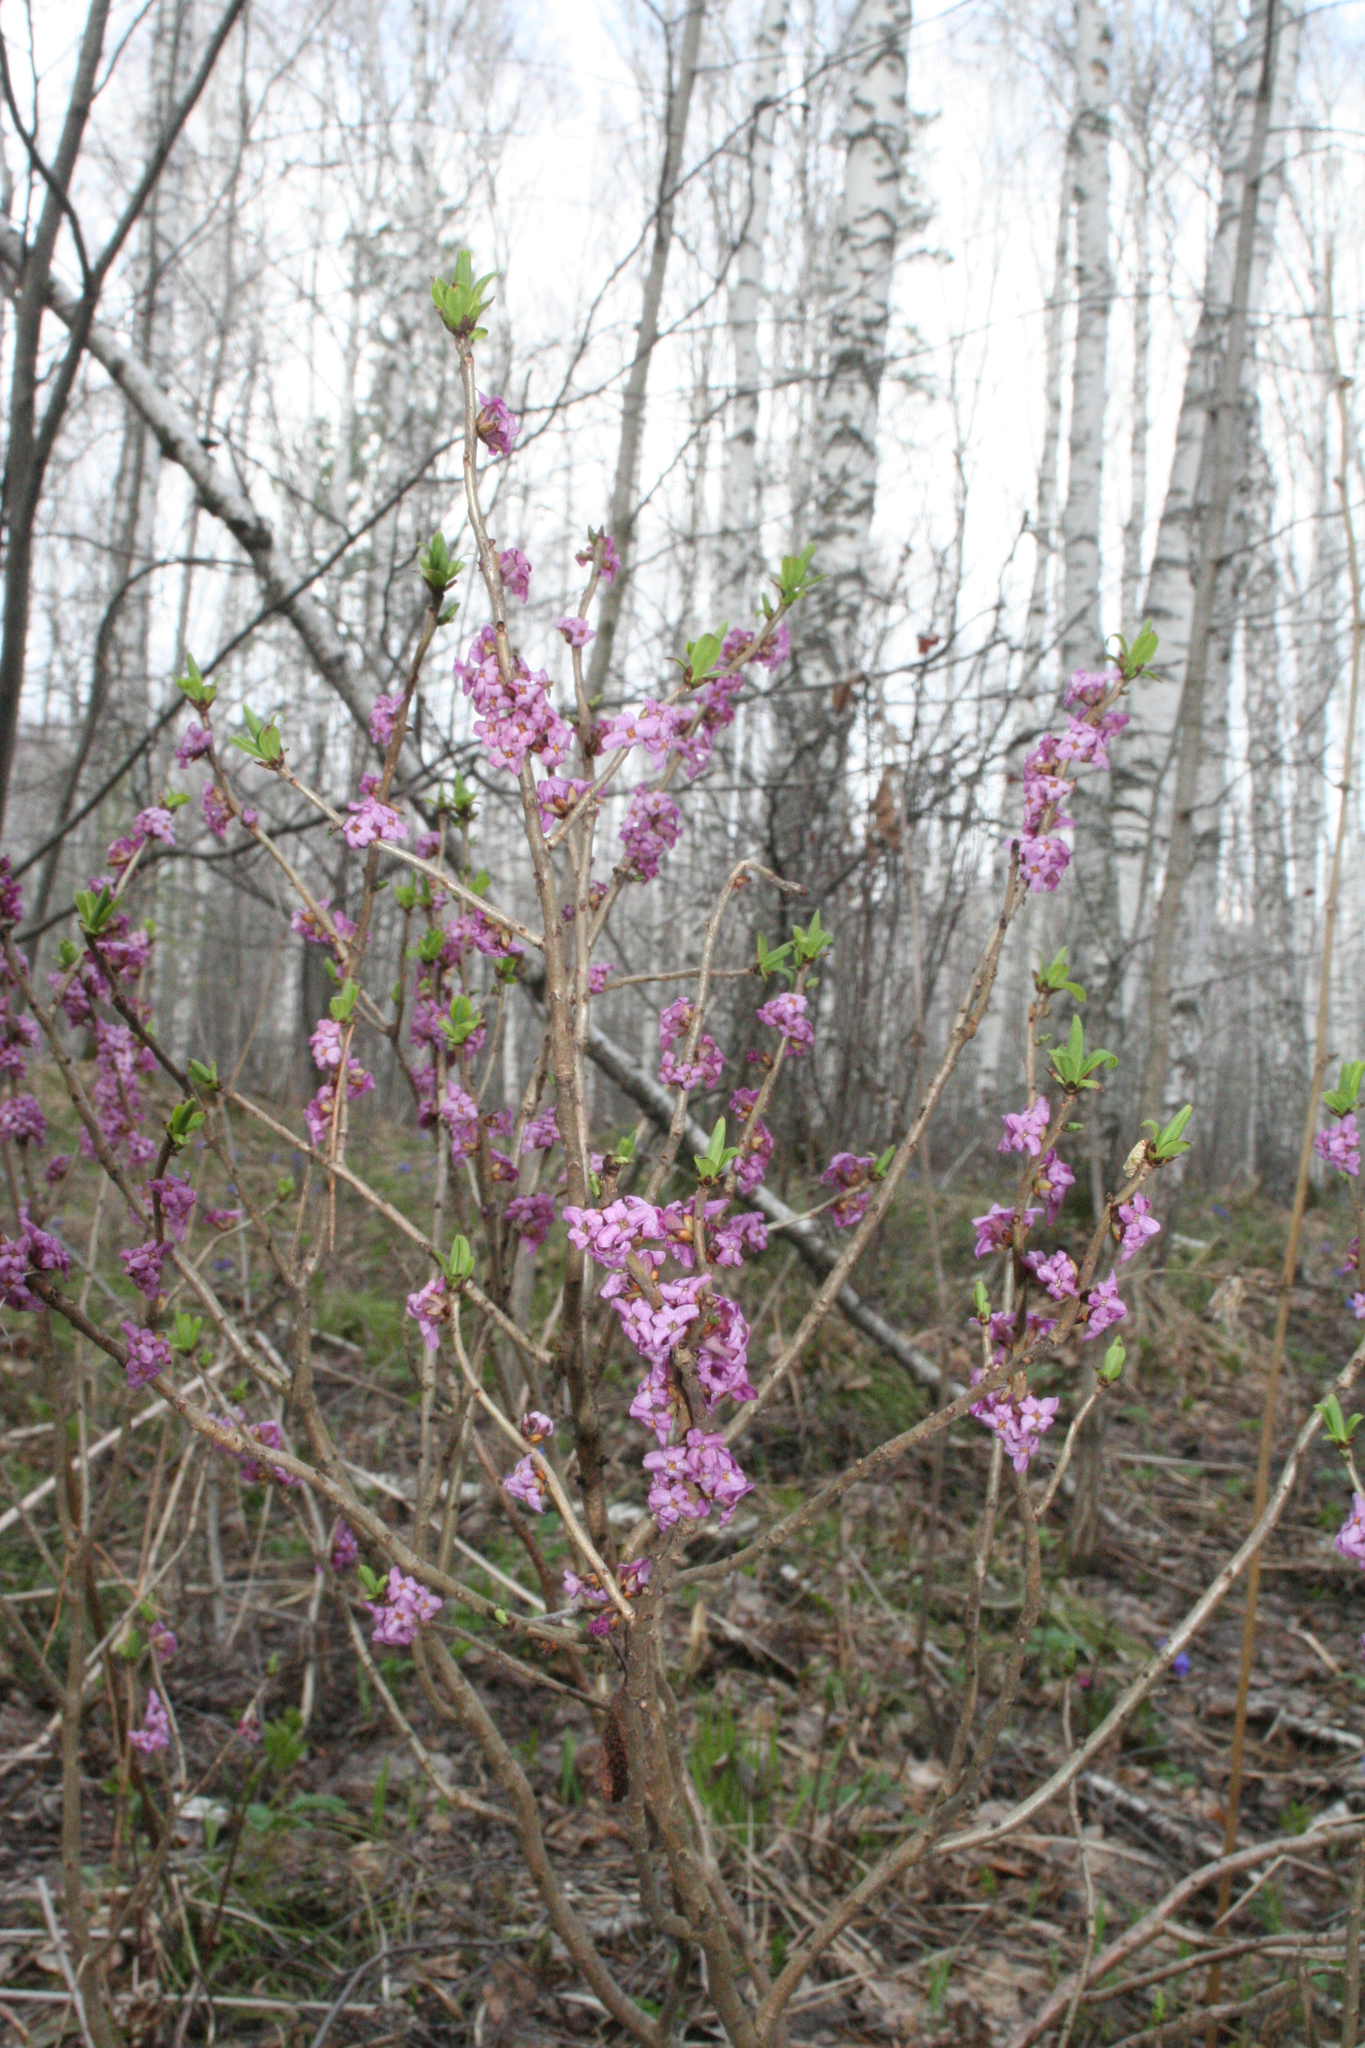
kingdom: Plantae
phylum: Tracheophyta
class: Magnoliopsida
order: Malvales
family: Thymelaeaceae
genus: Daphne
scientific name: Daphne mezereum
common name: Mezereon
